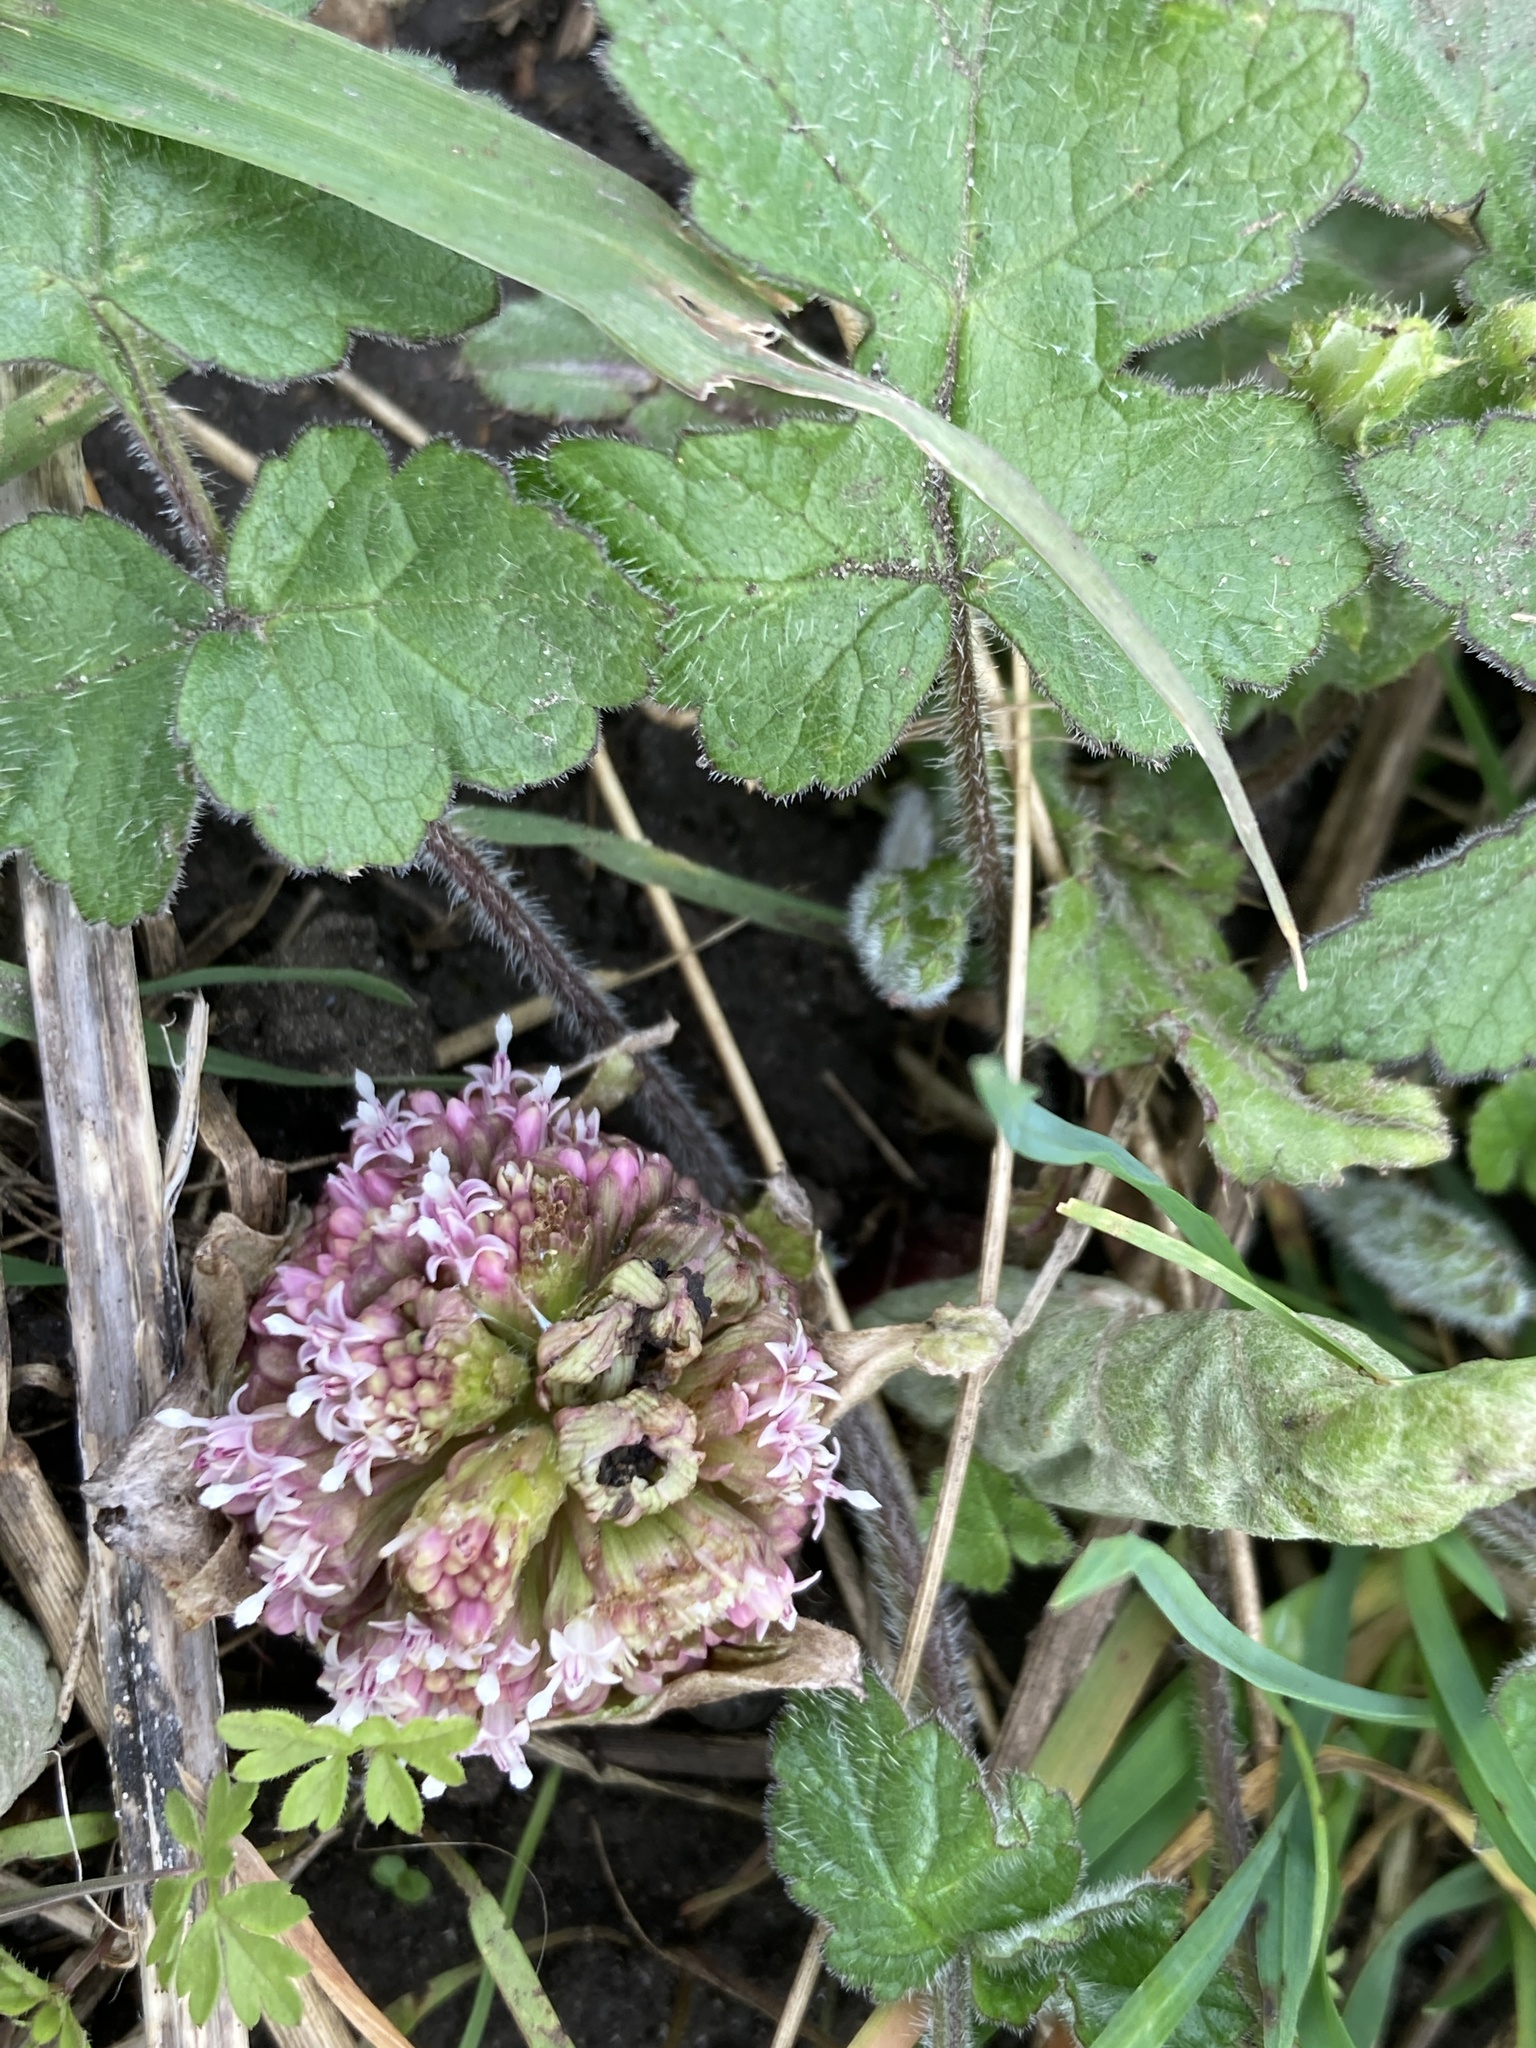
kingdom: Plantae
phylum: Tracheophyta
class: Magnoliopsida
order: Asterales
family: Asteraceae
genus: Petasites
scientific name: Petasites hybridus
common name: Butterbur
